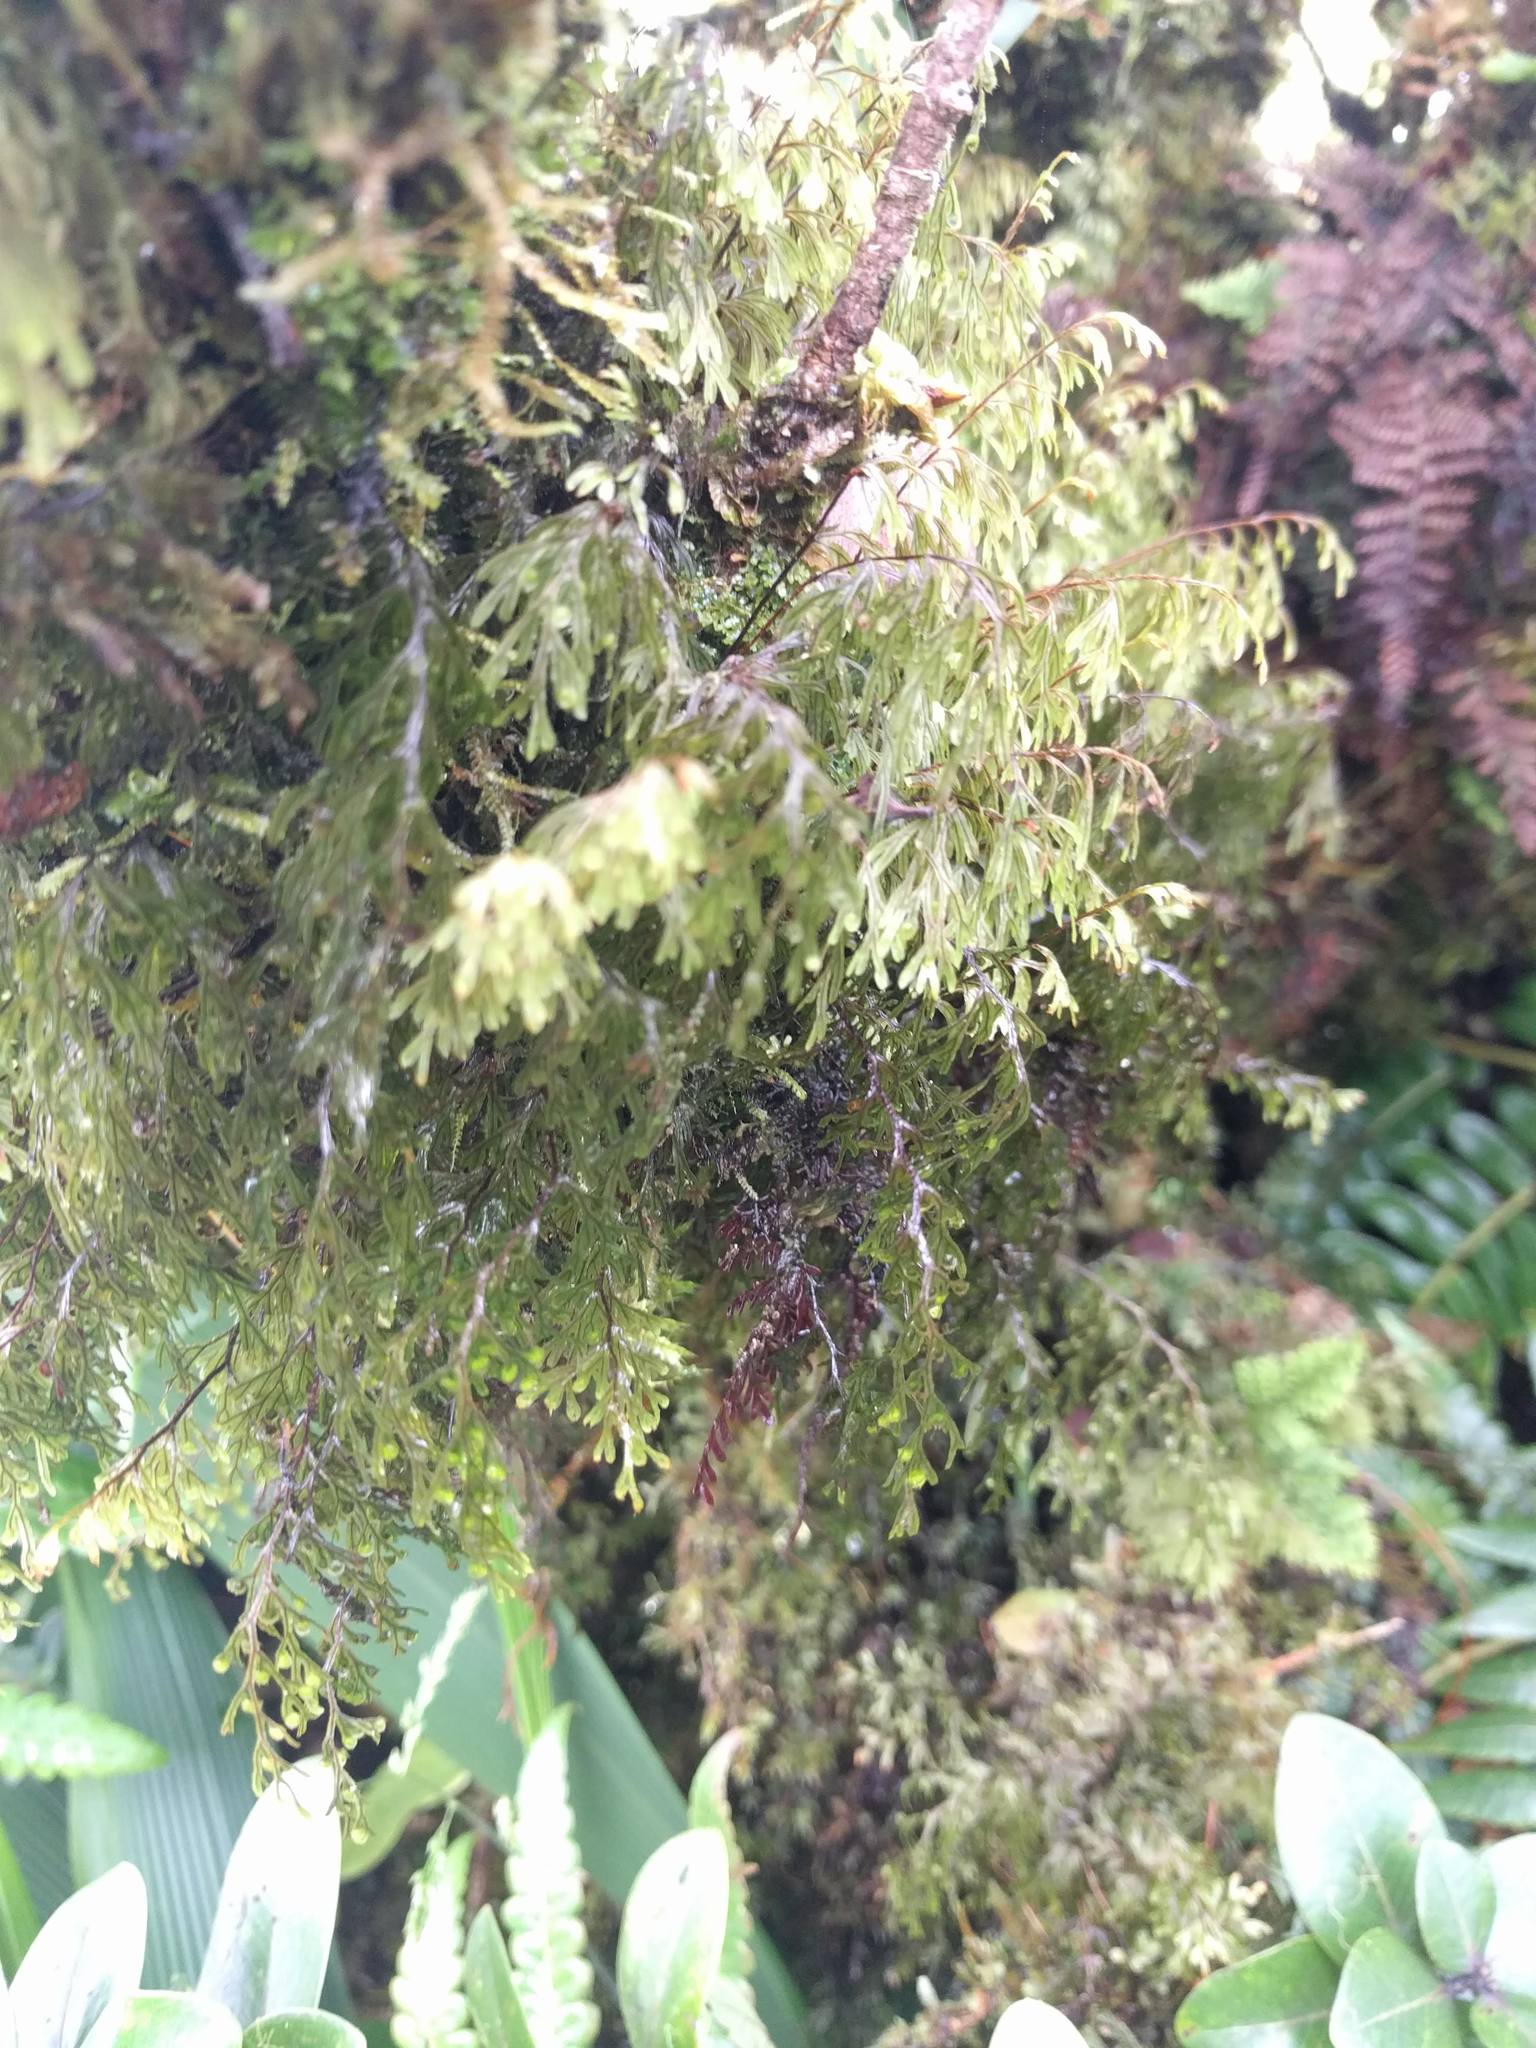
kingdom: Plantae
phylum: Tracheophyta
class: Polypodiopsida
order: Hymenophyllales
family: Hymenophyllaceae
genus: Hymenophyllum
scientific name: Hymenophyllum lanceolatum
